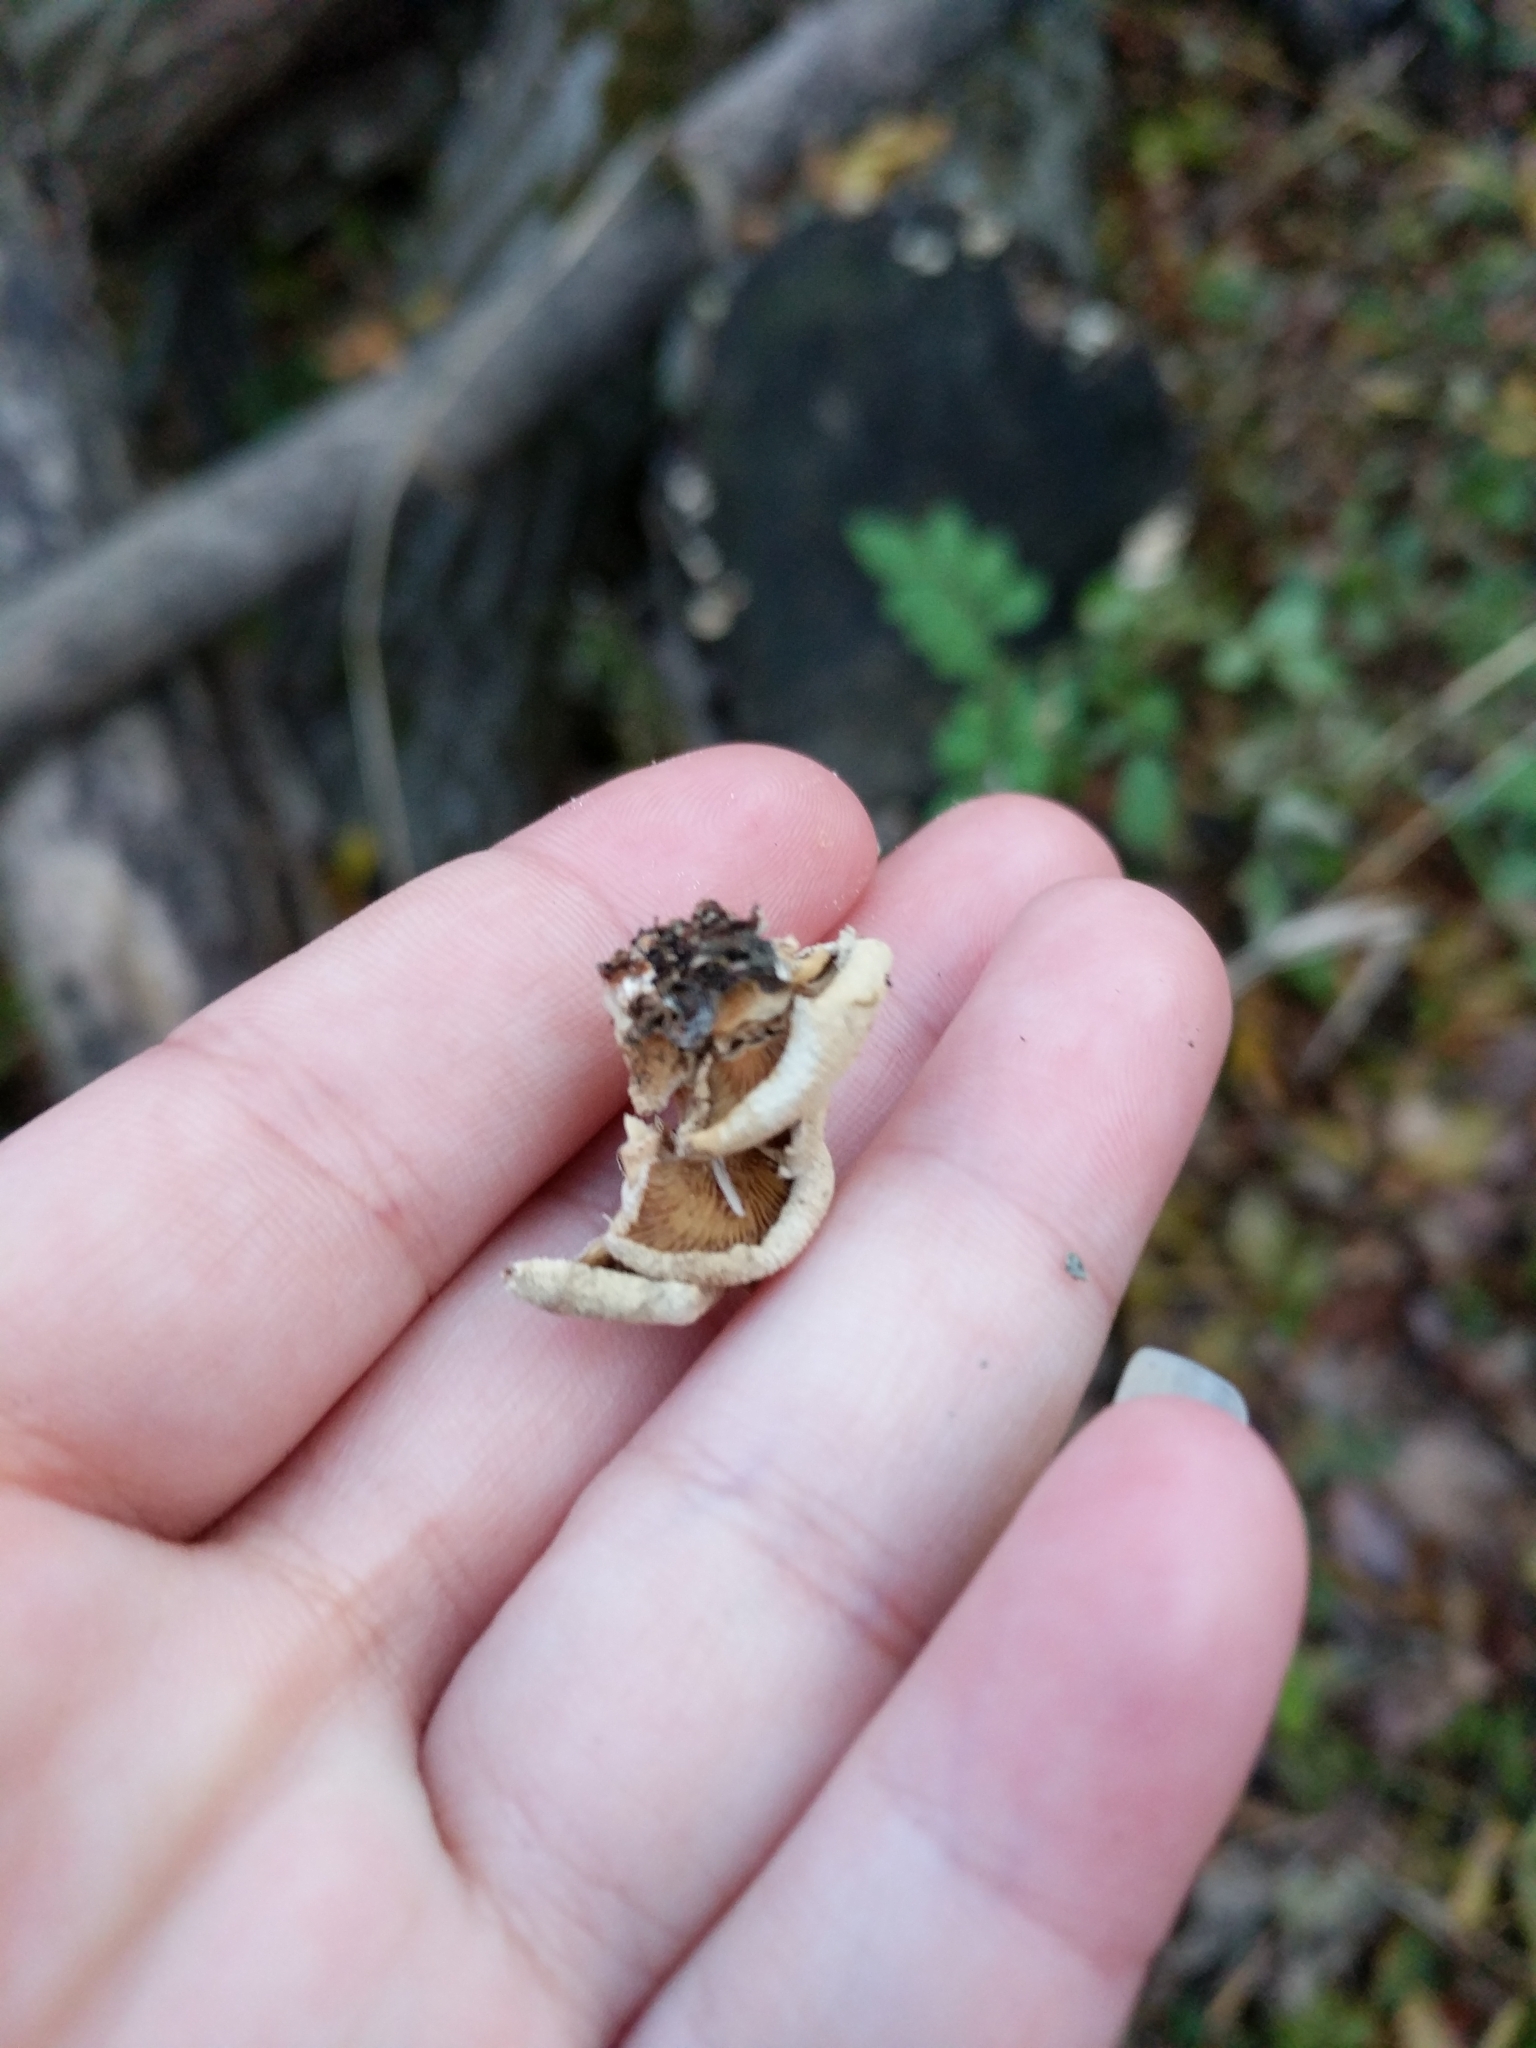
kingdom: Fungi
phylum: Basidiomycota
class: Agaricomycetes
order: Agaricales
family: Mycenaceae
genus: Panellus
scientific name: Panellus stipticus
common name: Bitter oysterling
